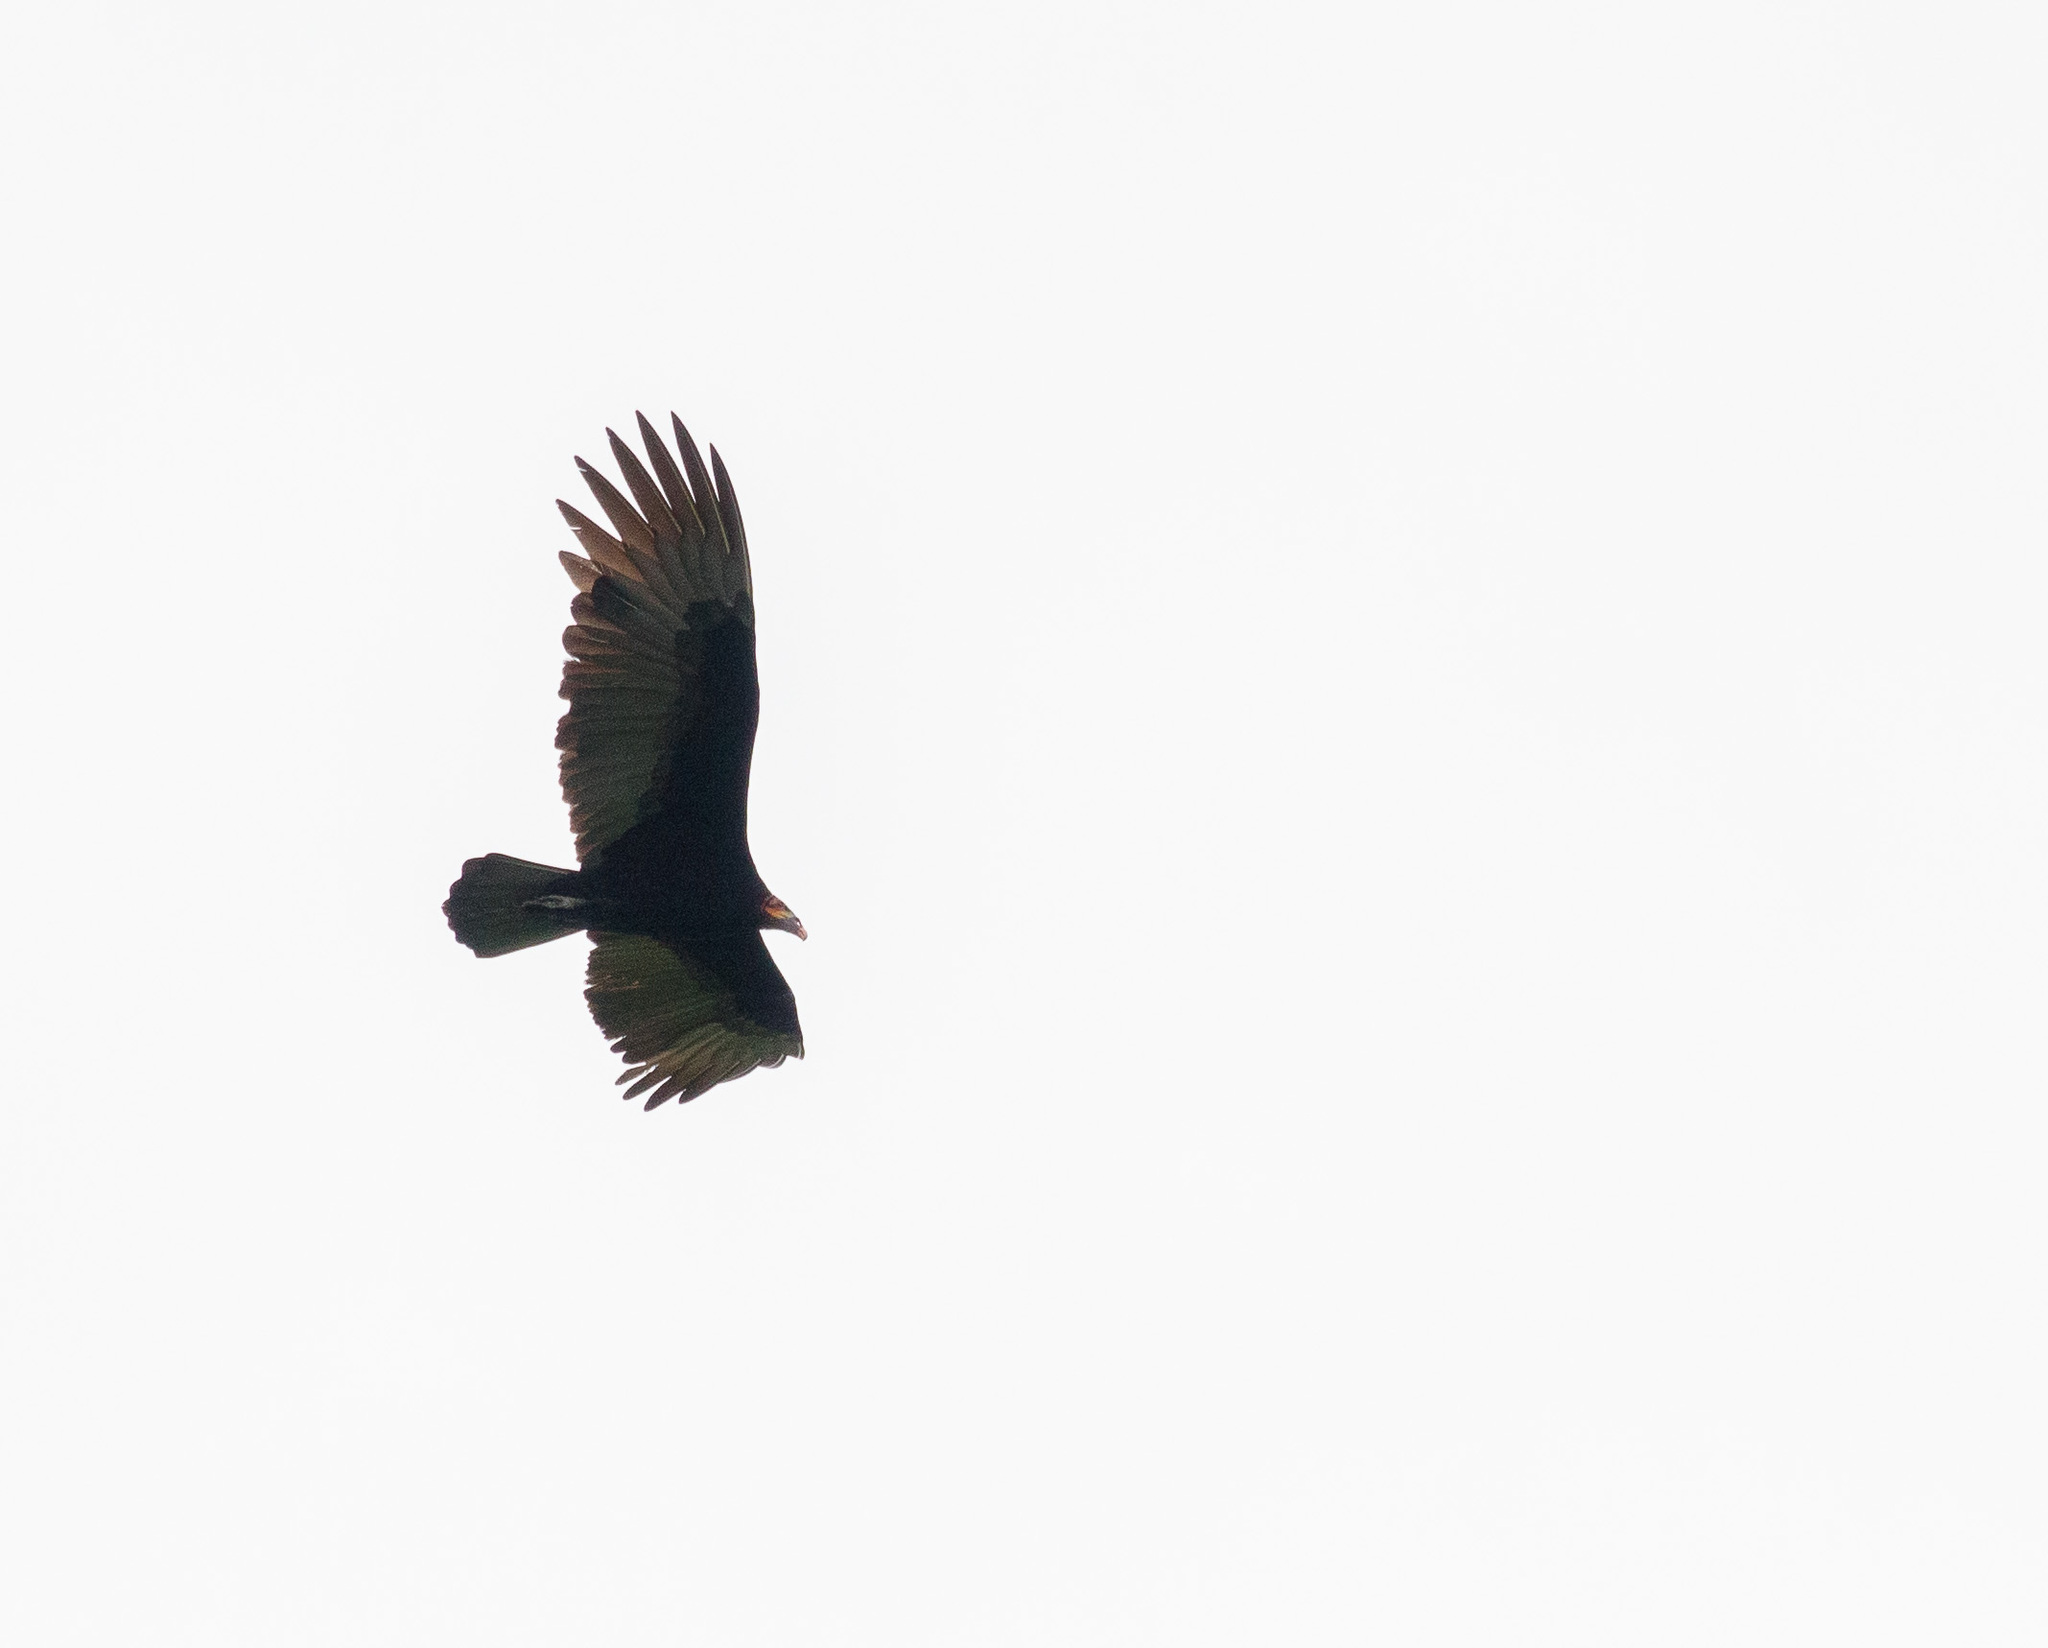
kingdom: Animalia
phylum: Chordata
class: Aves
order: Accipitriformes
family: Cathartidae
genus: Cathartes
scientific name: Cathartes burrovianus
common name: Lesser yellow-headed vulture
